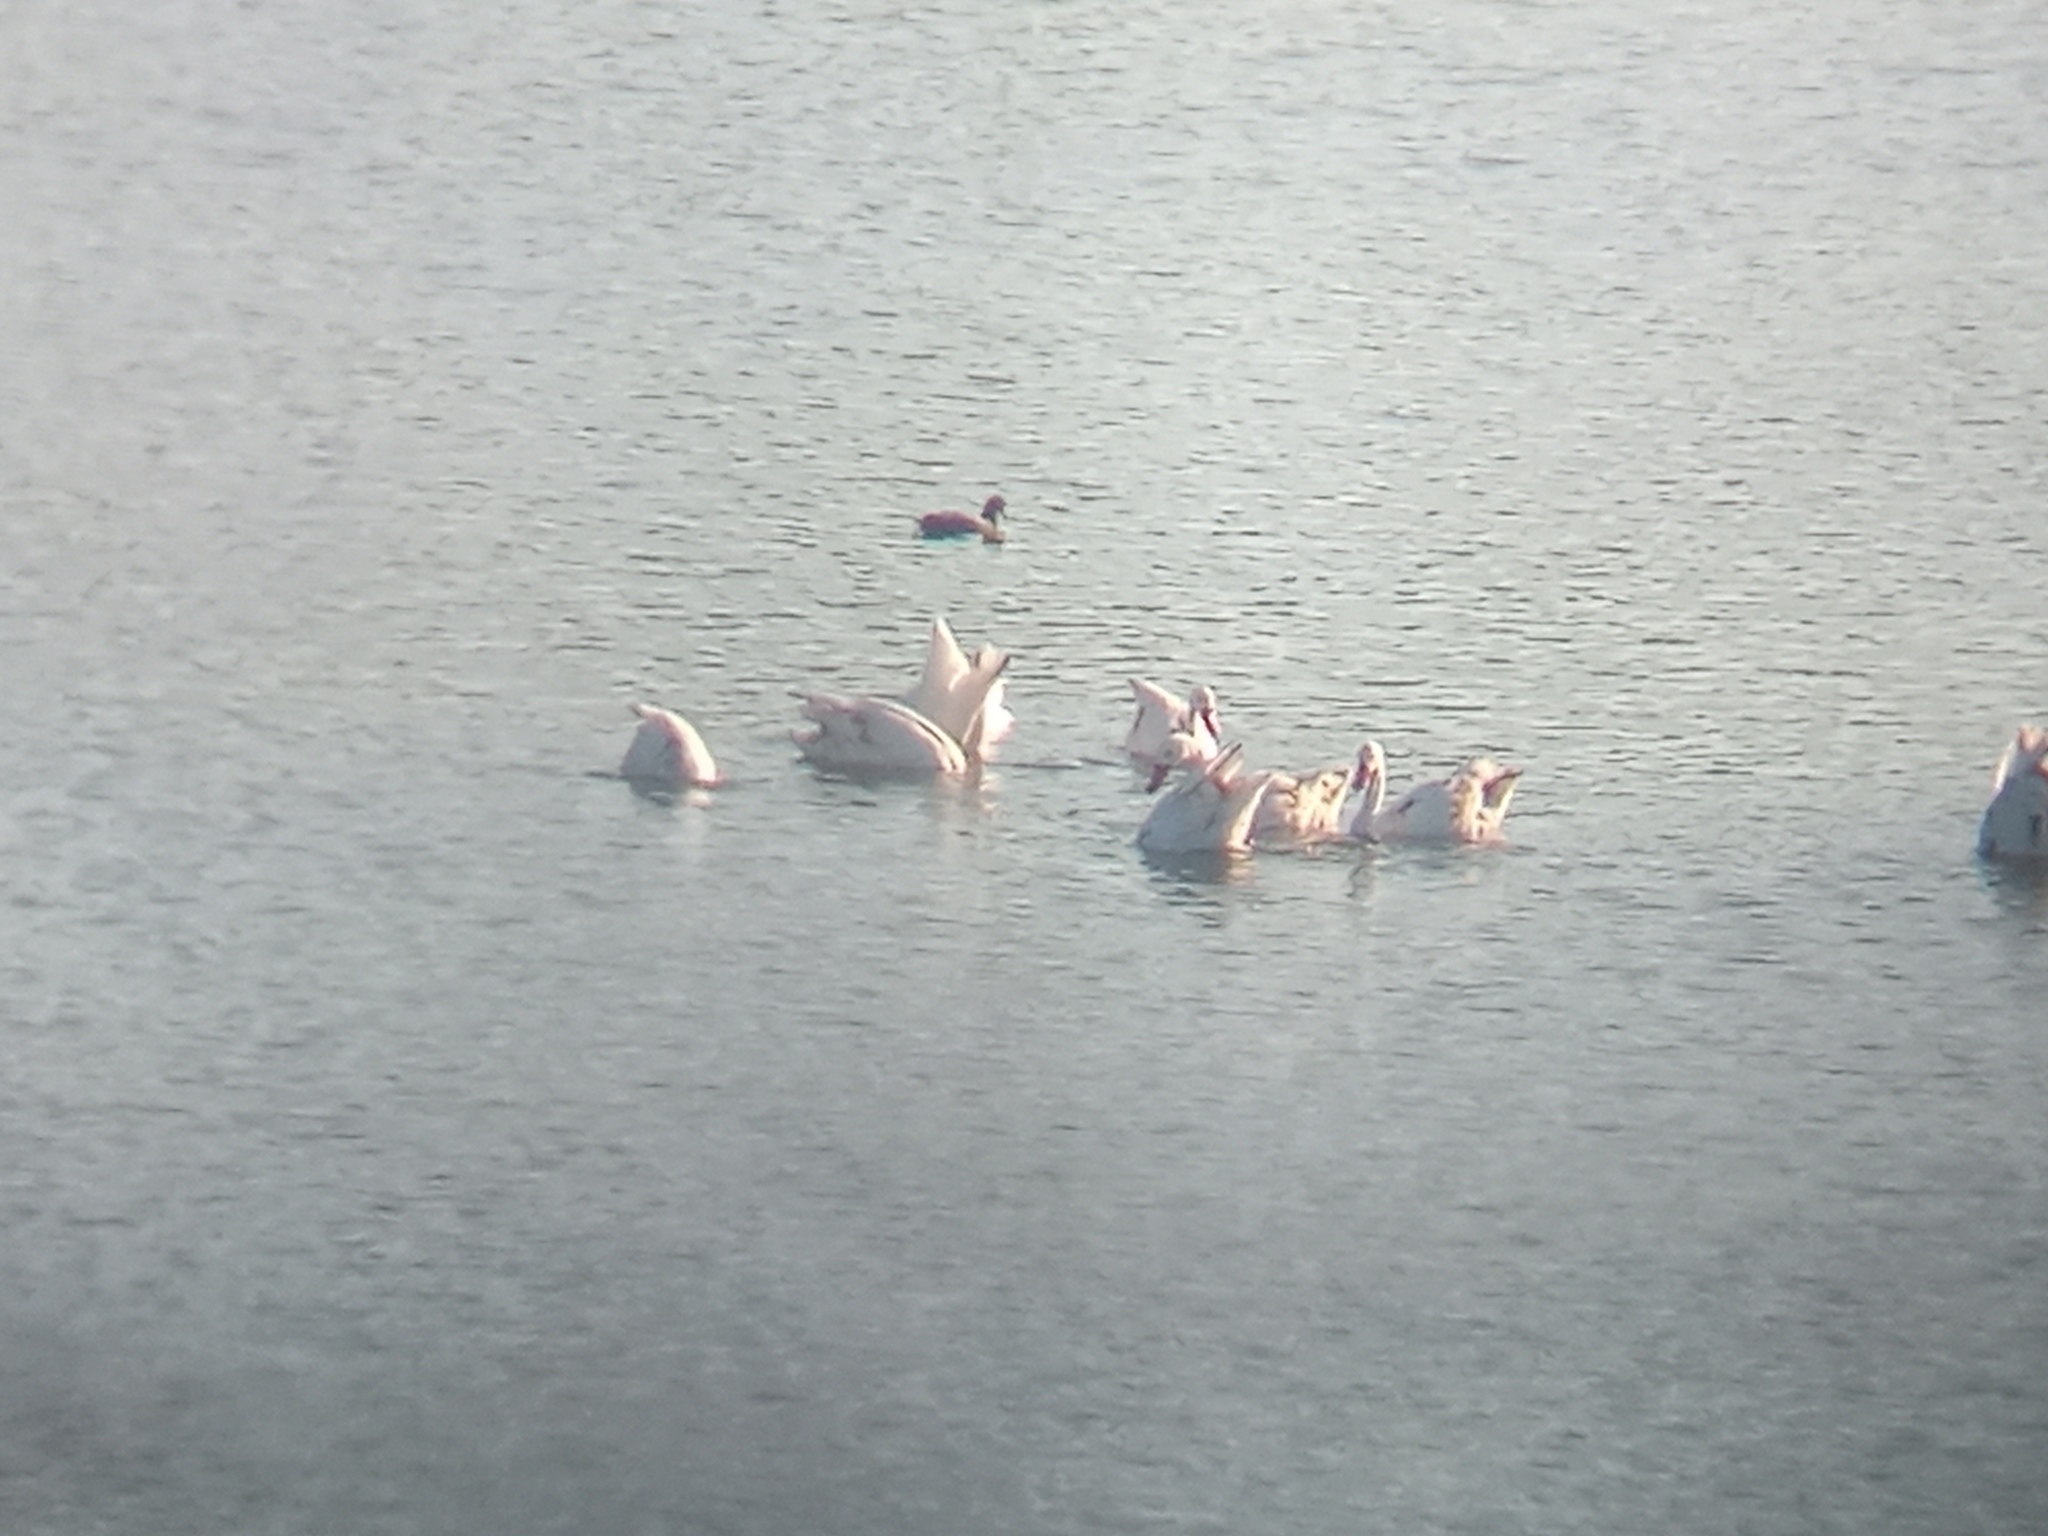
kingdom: Animalia
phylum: Chordata
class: Aves
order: Anseriformes
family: Anatidae
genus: Coscoroba
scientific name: Coscoroba coscoroba
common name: Coscoroba swan
